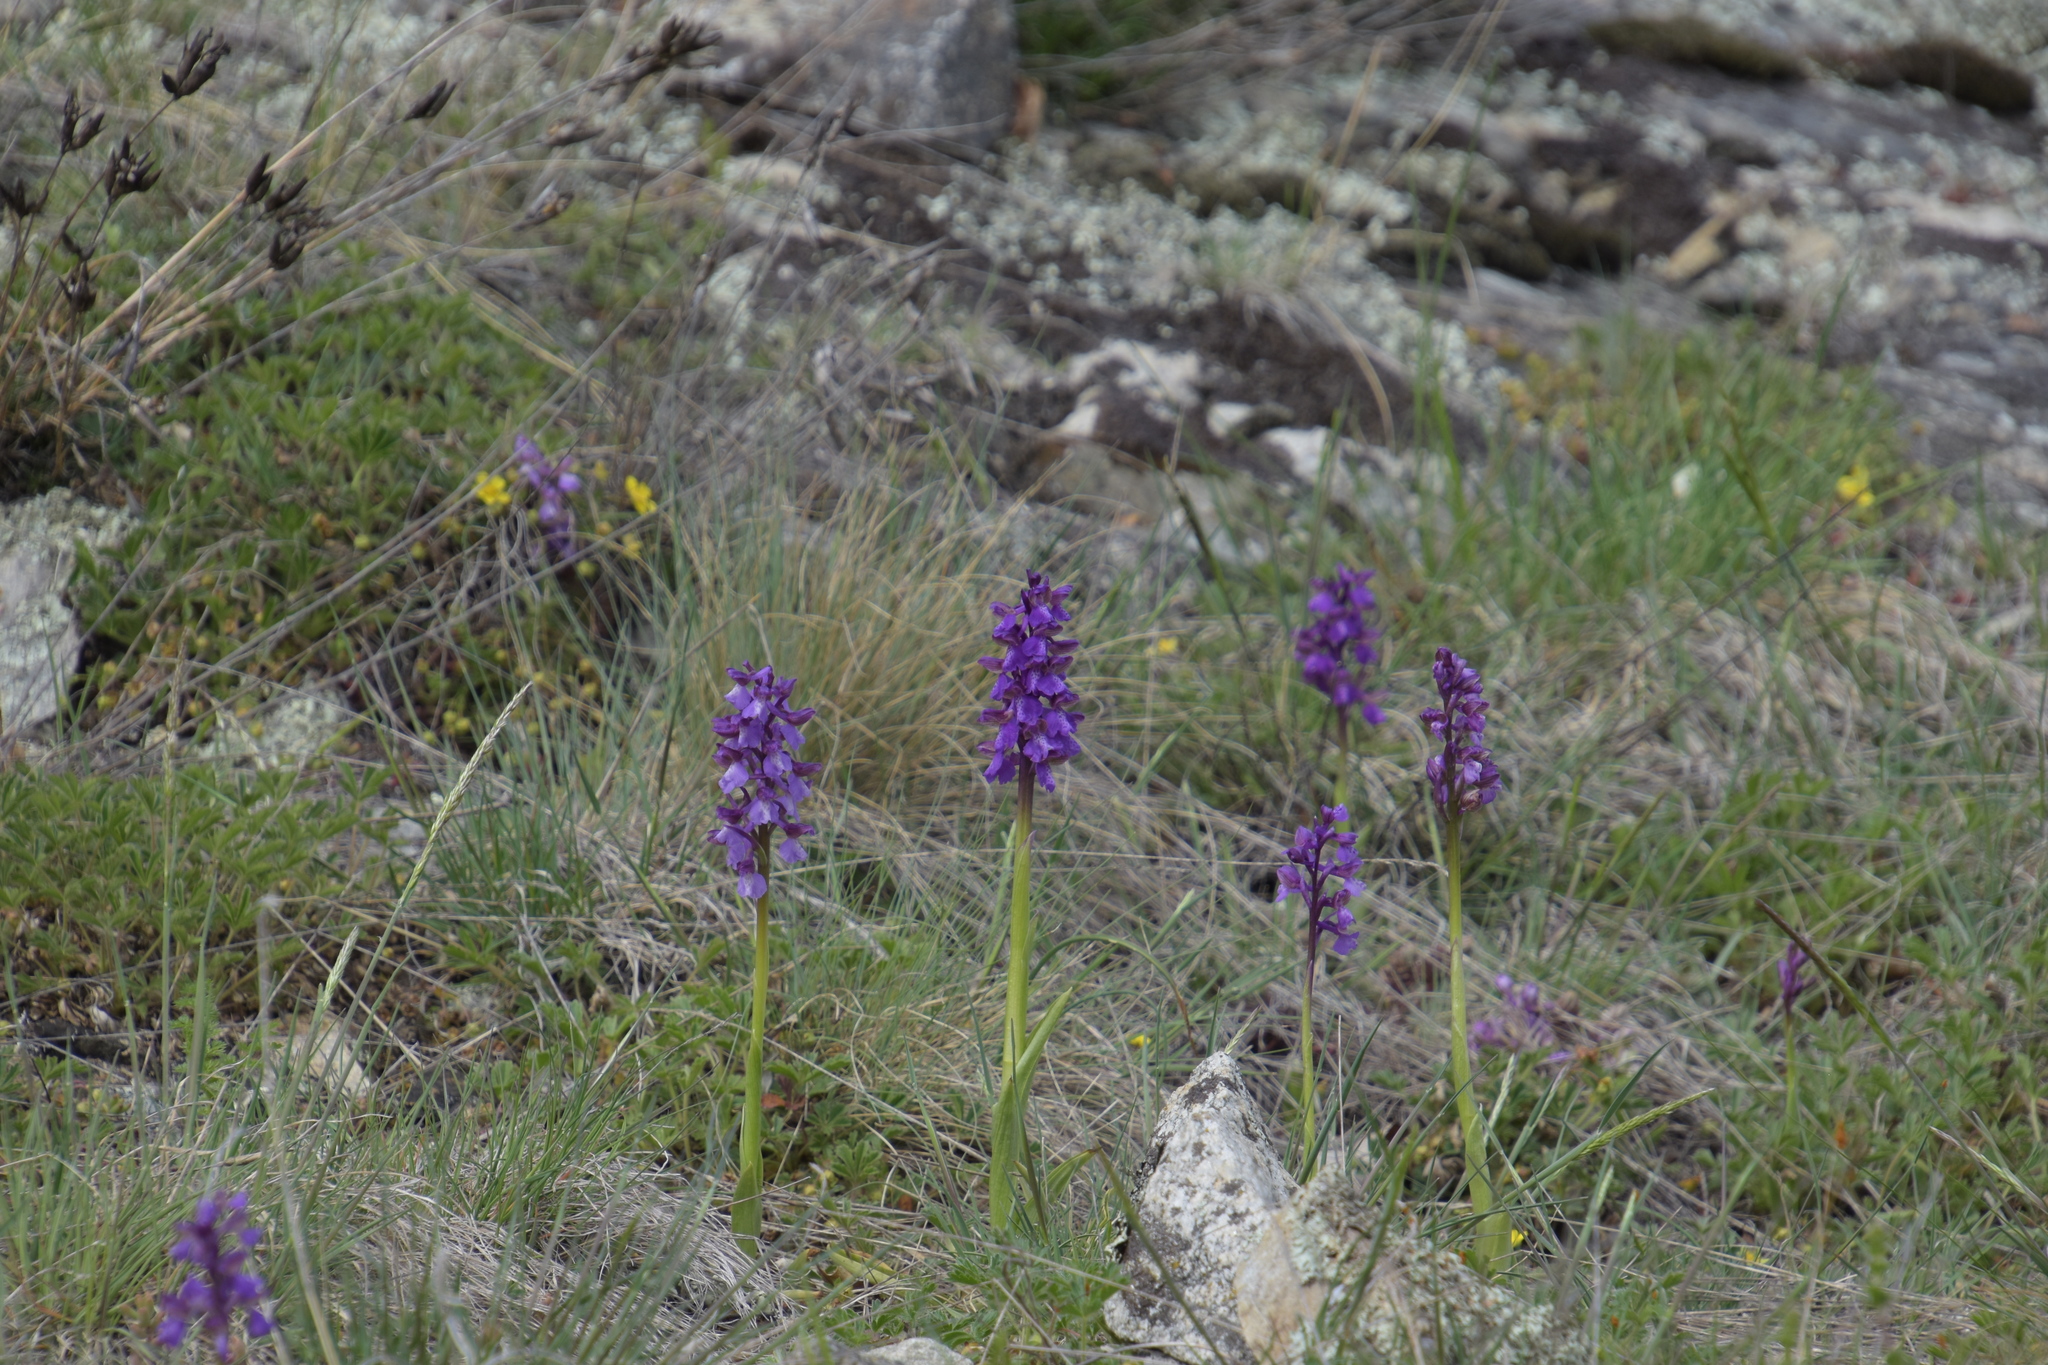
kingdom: Plantae
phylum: Tracheophyta
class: Liliopsida
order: Asparagales
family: Orchidaceae
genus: Anacamptis
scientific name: Anacamptis morio
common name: Green-winged orchid
